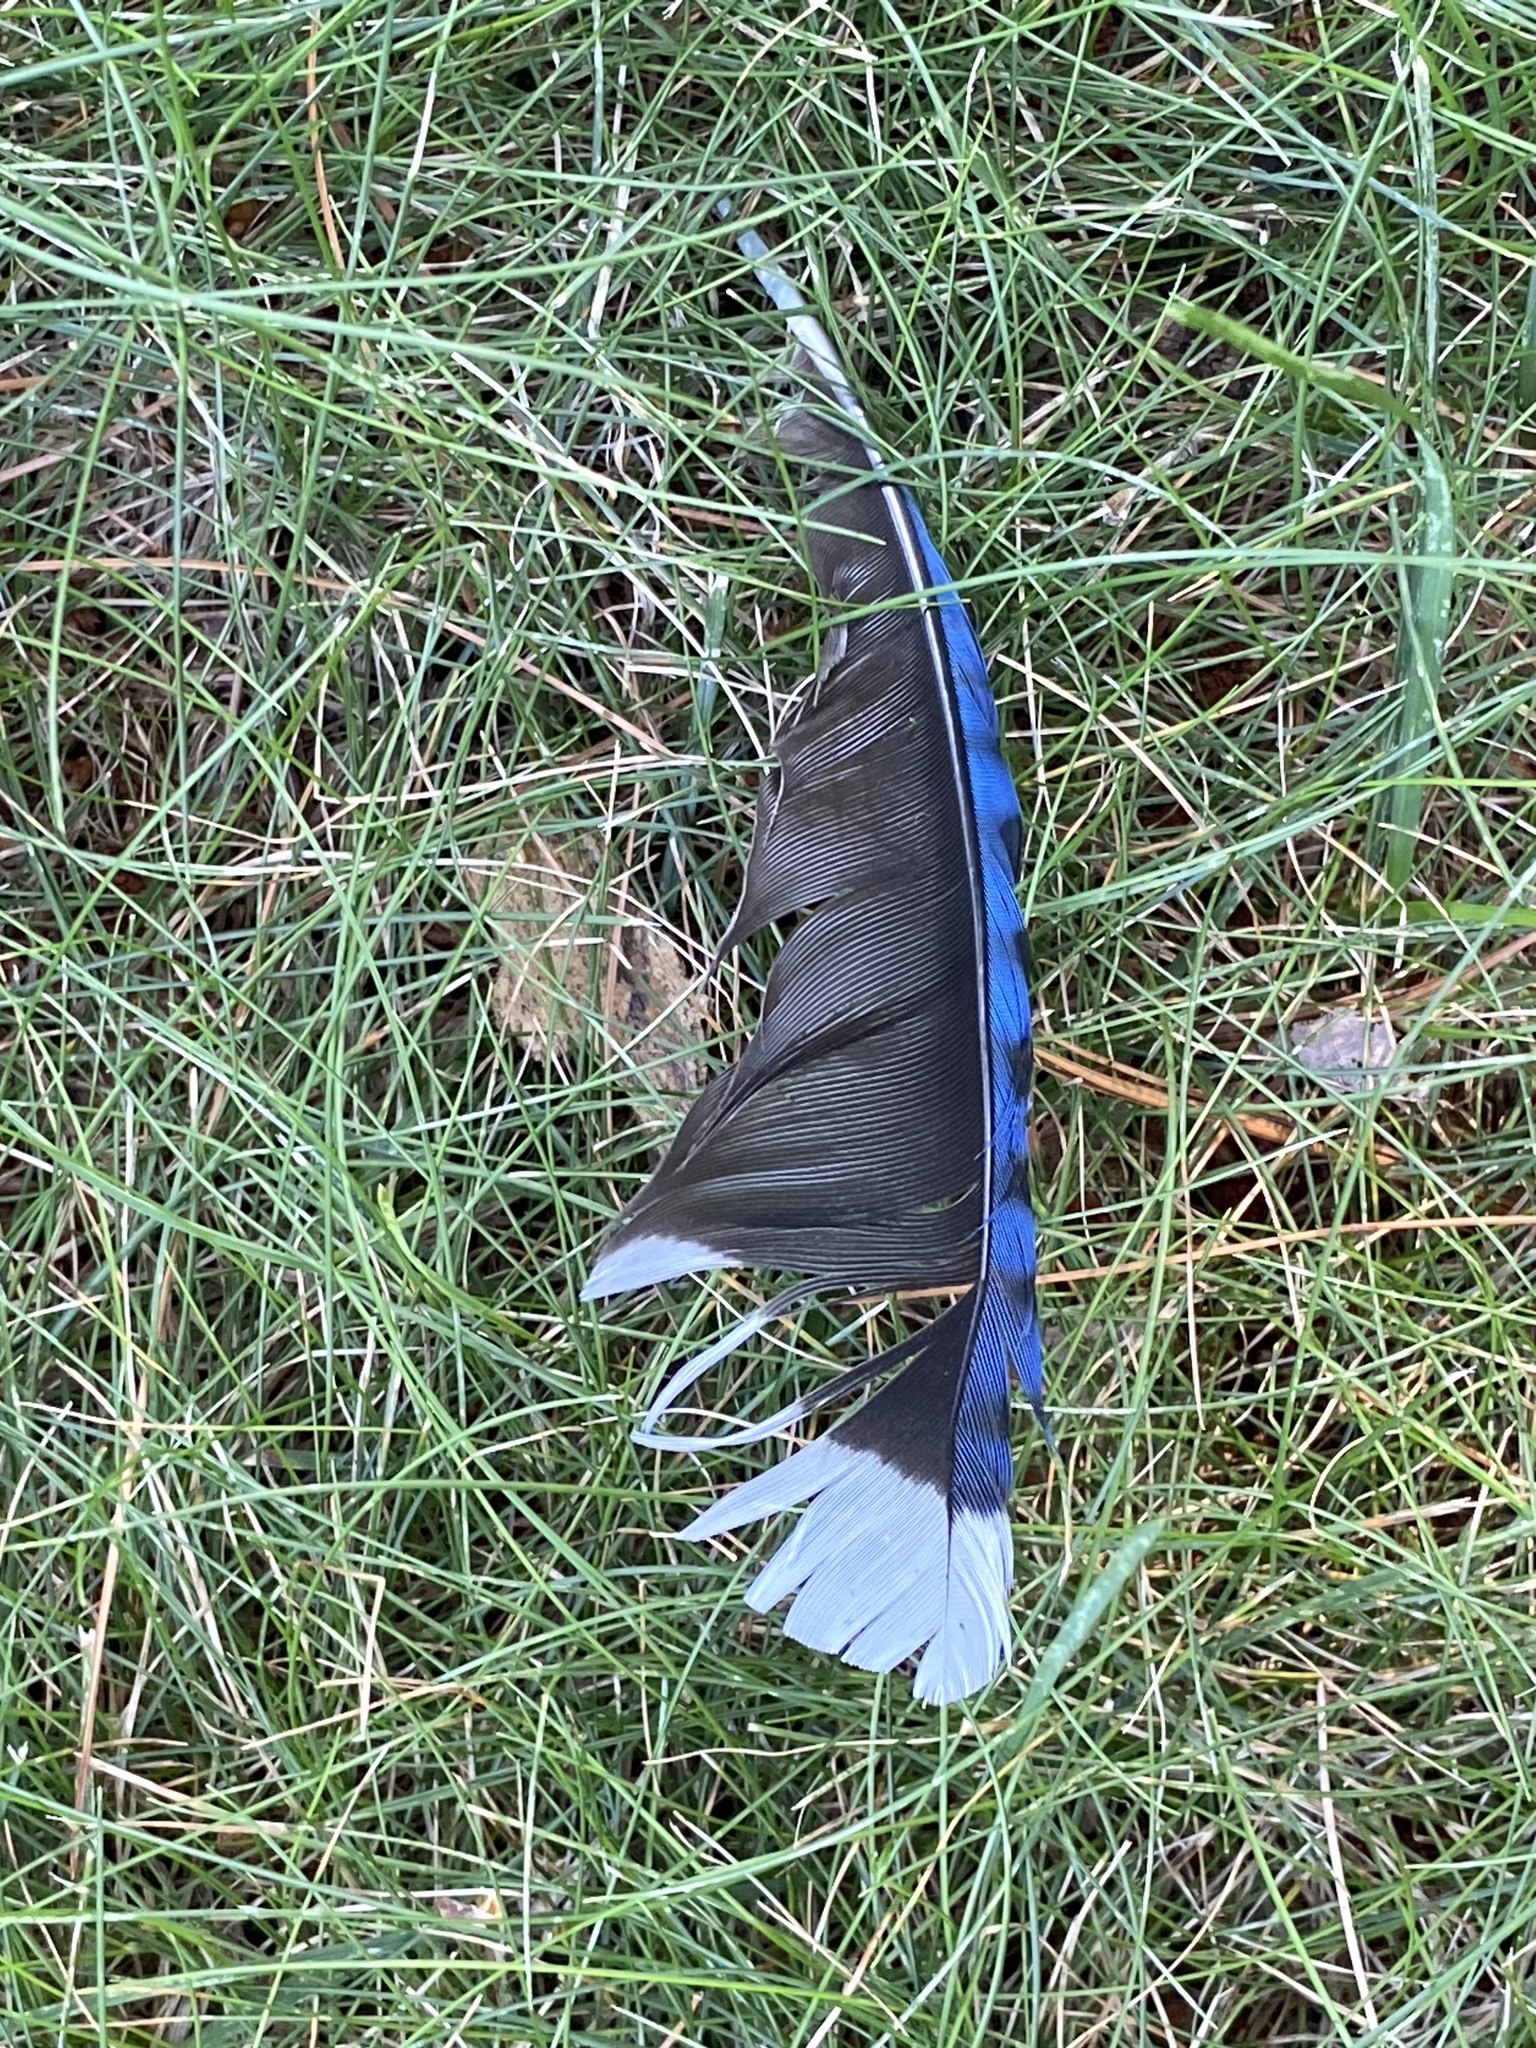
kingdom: Animalia
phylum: Chordata
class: Aves
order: Passeriformes
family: Corvidae
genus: Cyanocitta
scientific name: Cyanocitta cristata
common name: Blue jay
